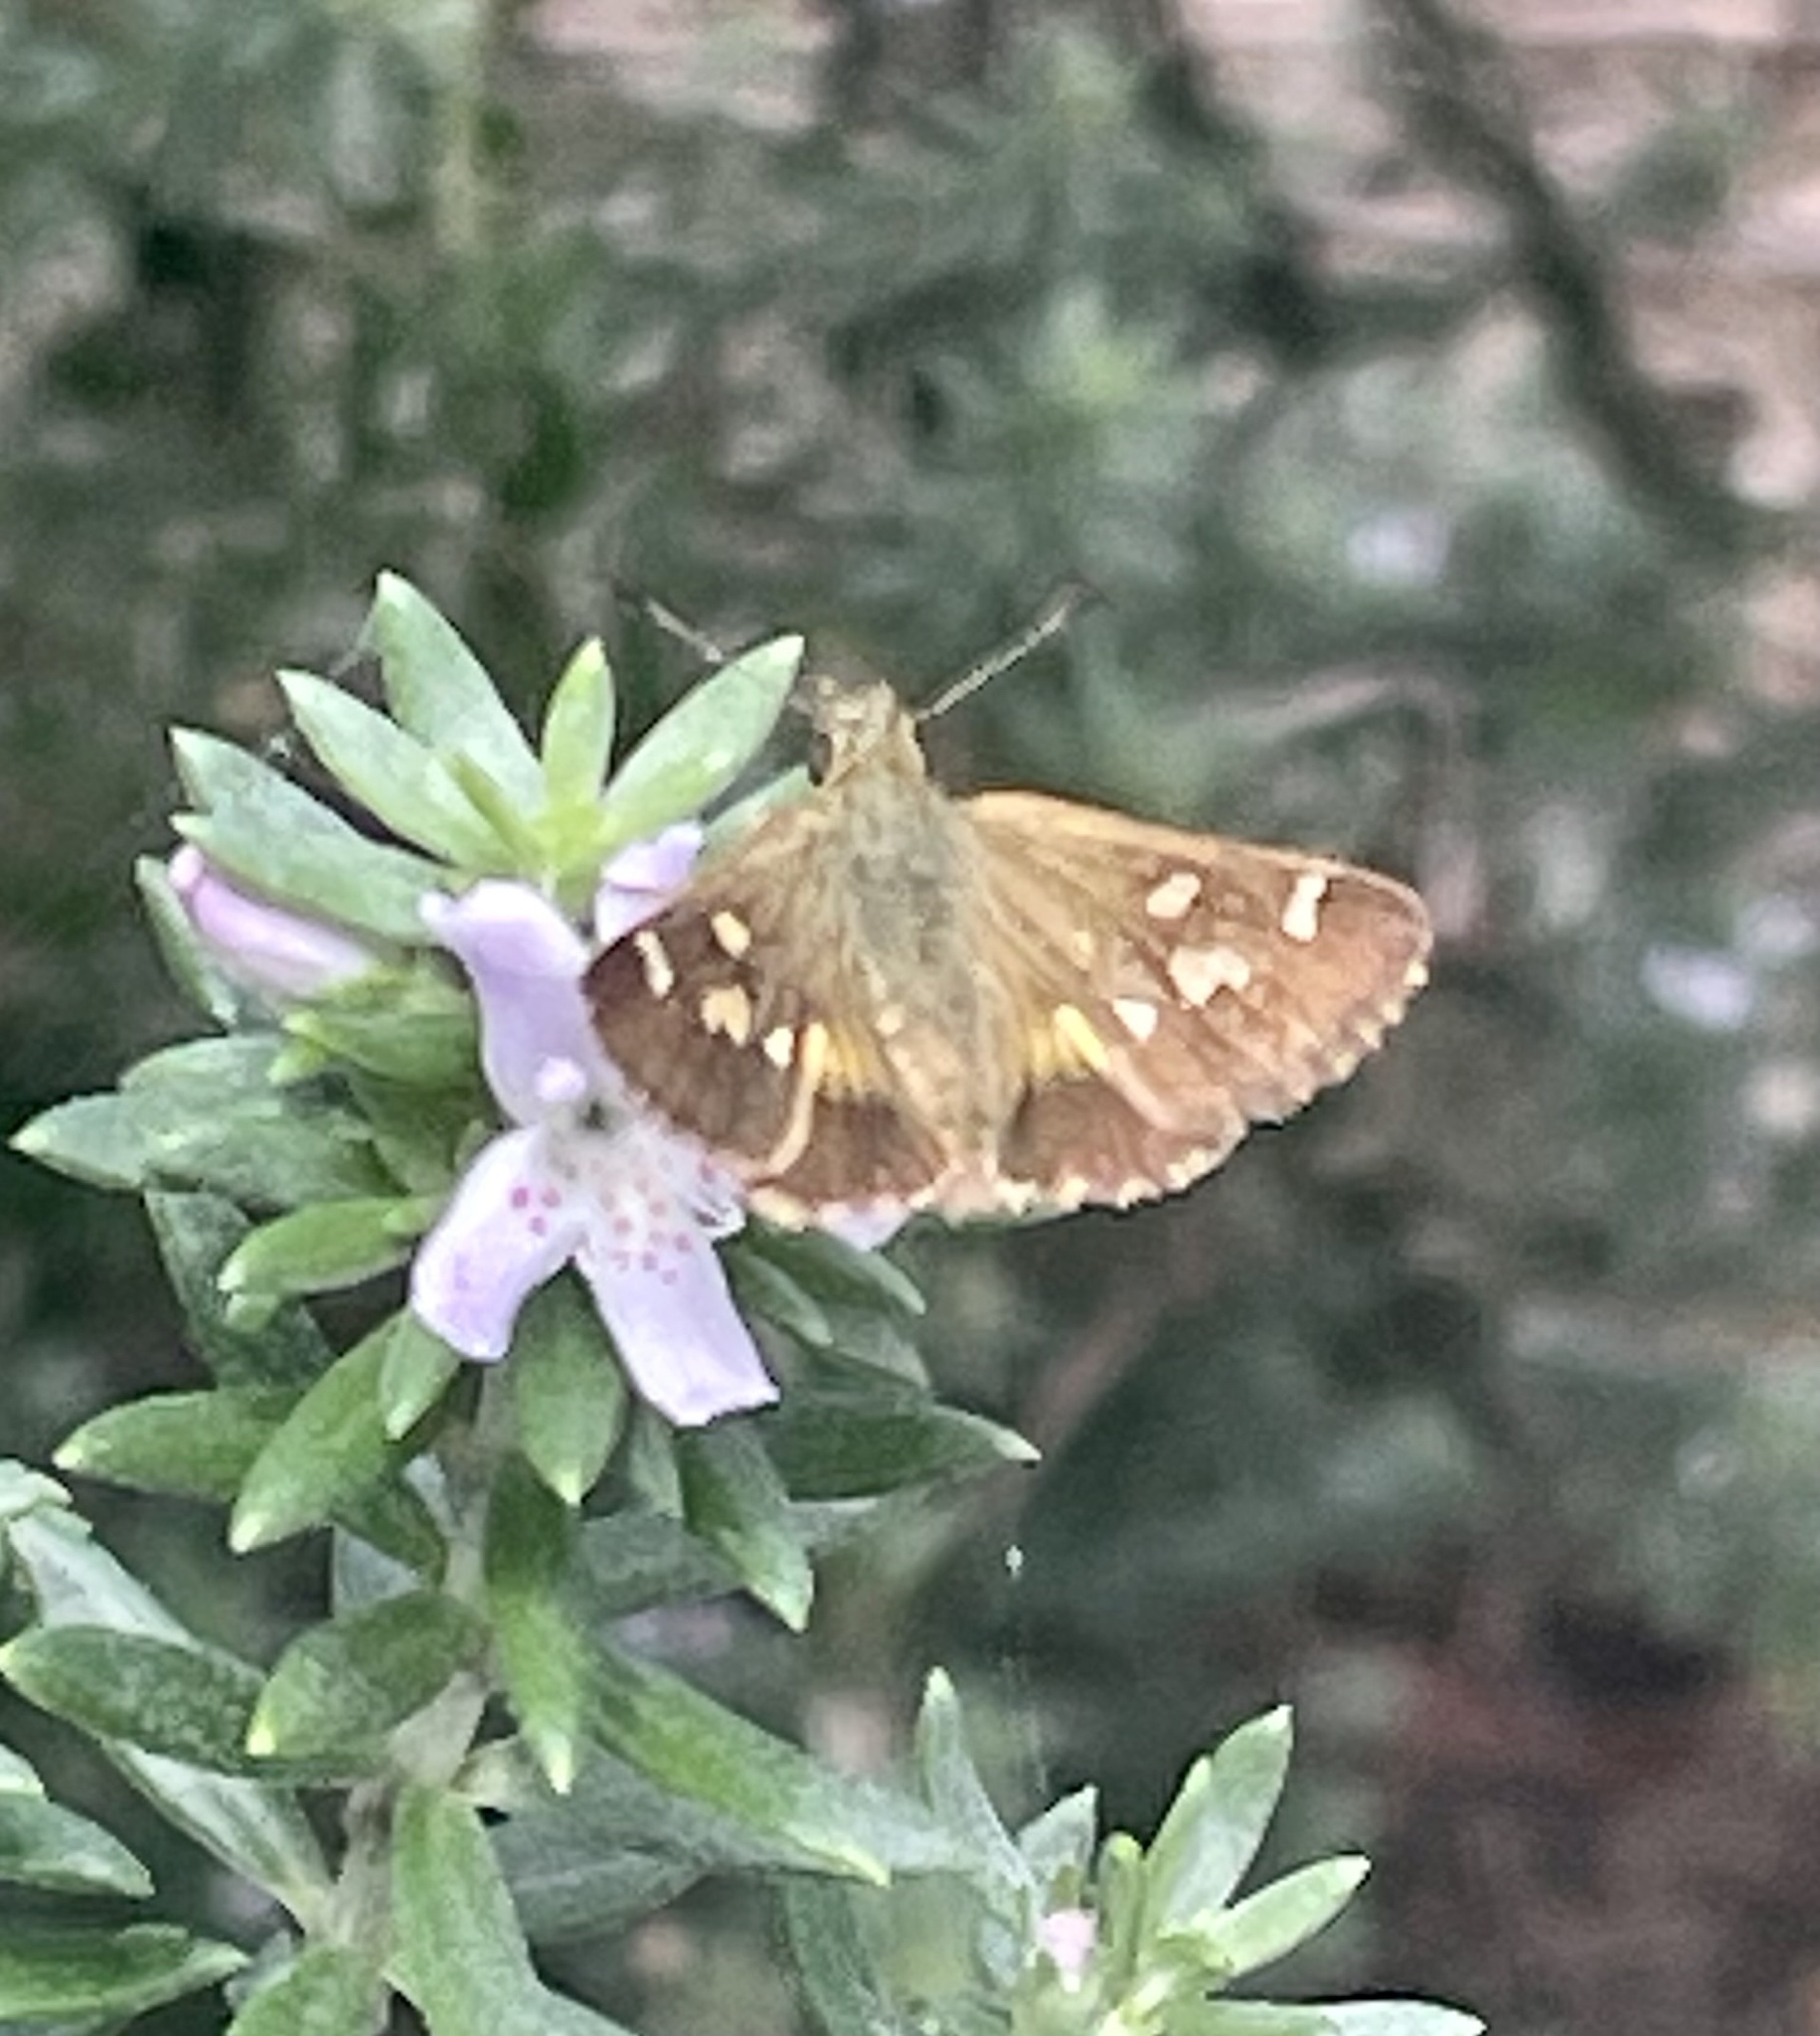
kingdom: Animalia
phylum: Arthropoda
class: Insecta
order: Lepidoptera
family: Hesperiidae
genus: Dispar
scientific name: Dispar compacta
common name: Barred skipper
